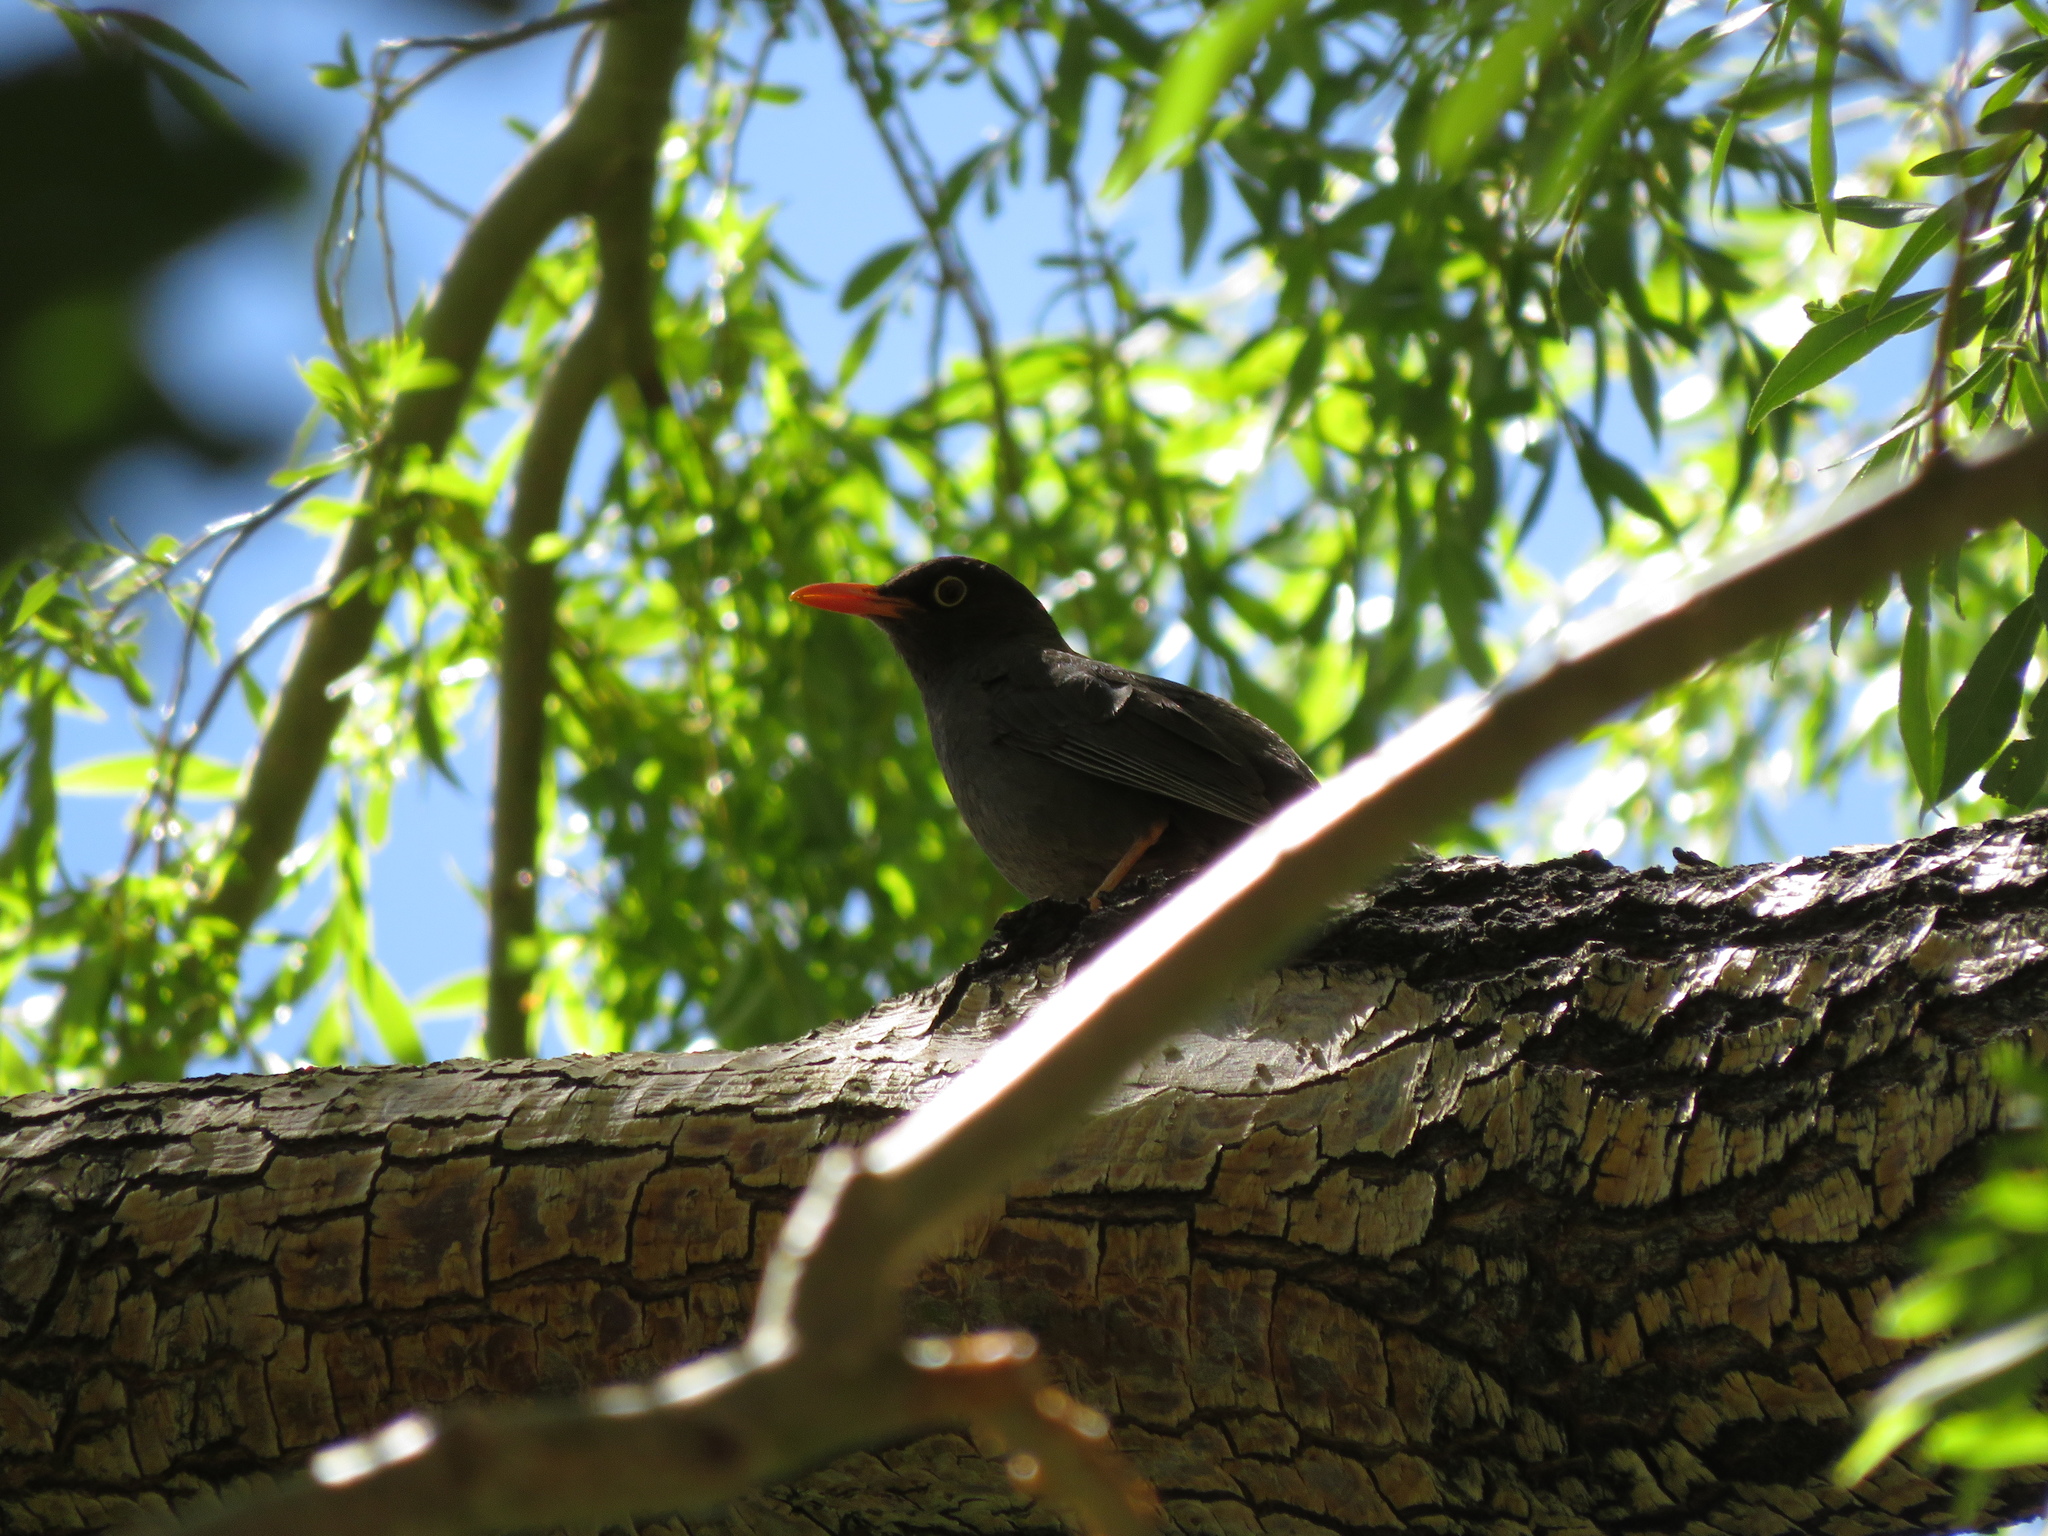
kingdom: Animalia
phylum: Chordata
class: Aves
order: Passeriformes
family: Turdidae
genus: Turdus
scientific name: Turdus chiguanco
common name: Chiguanco thrush
